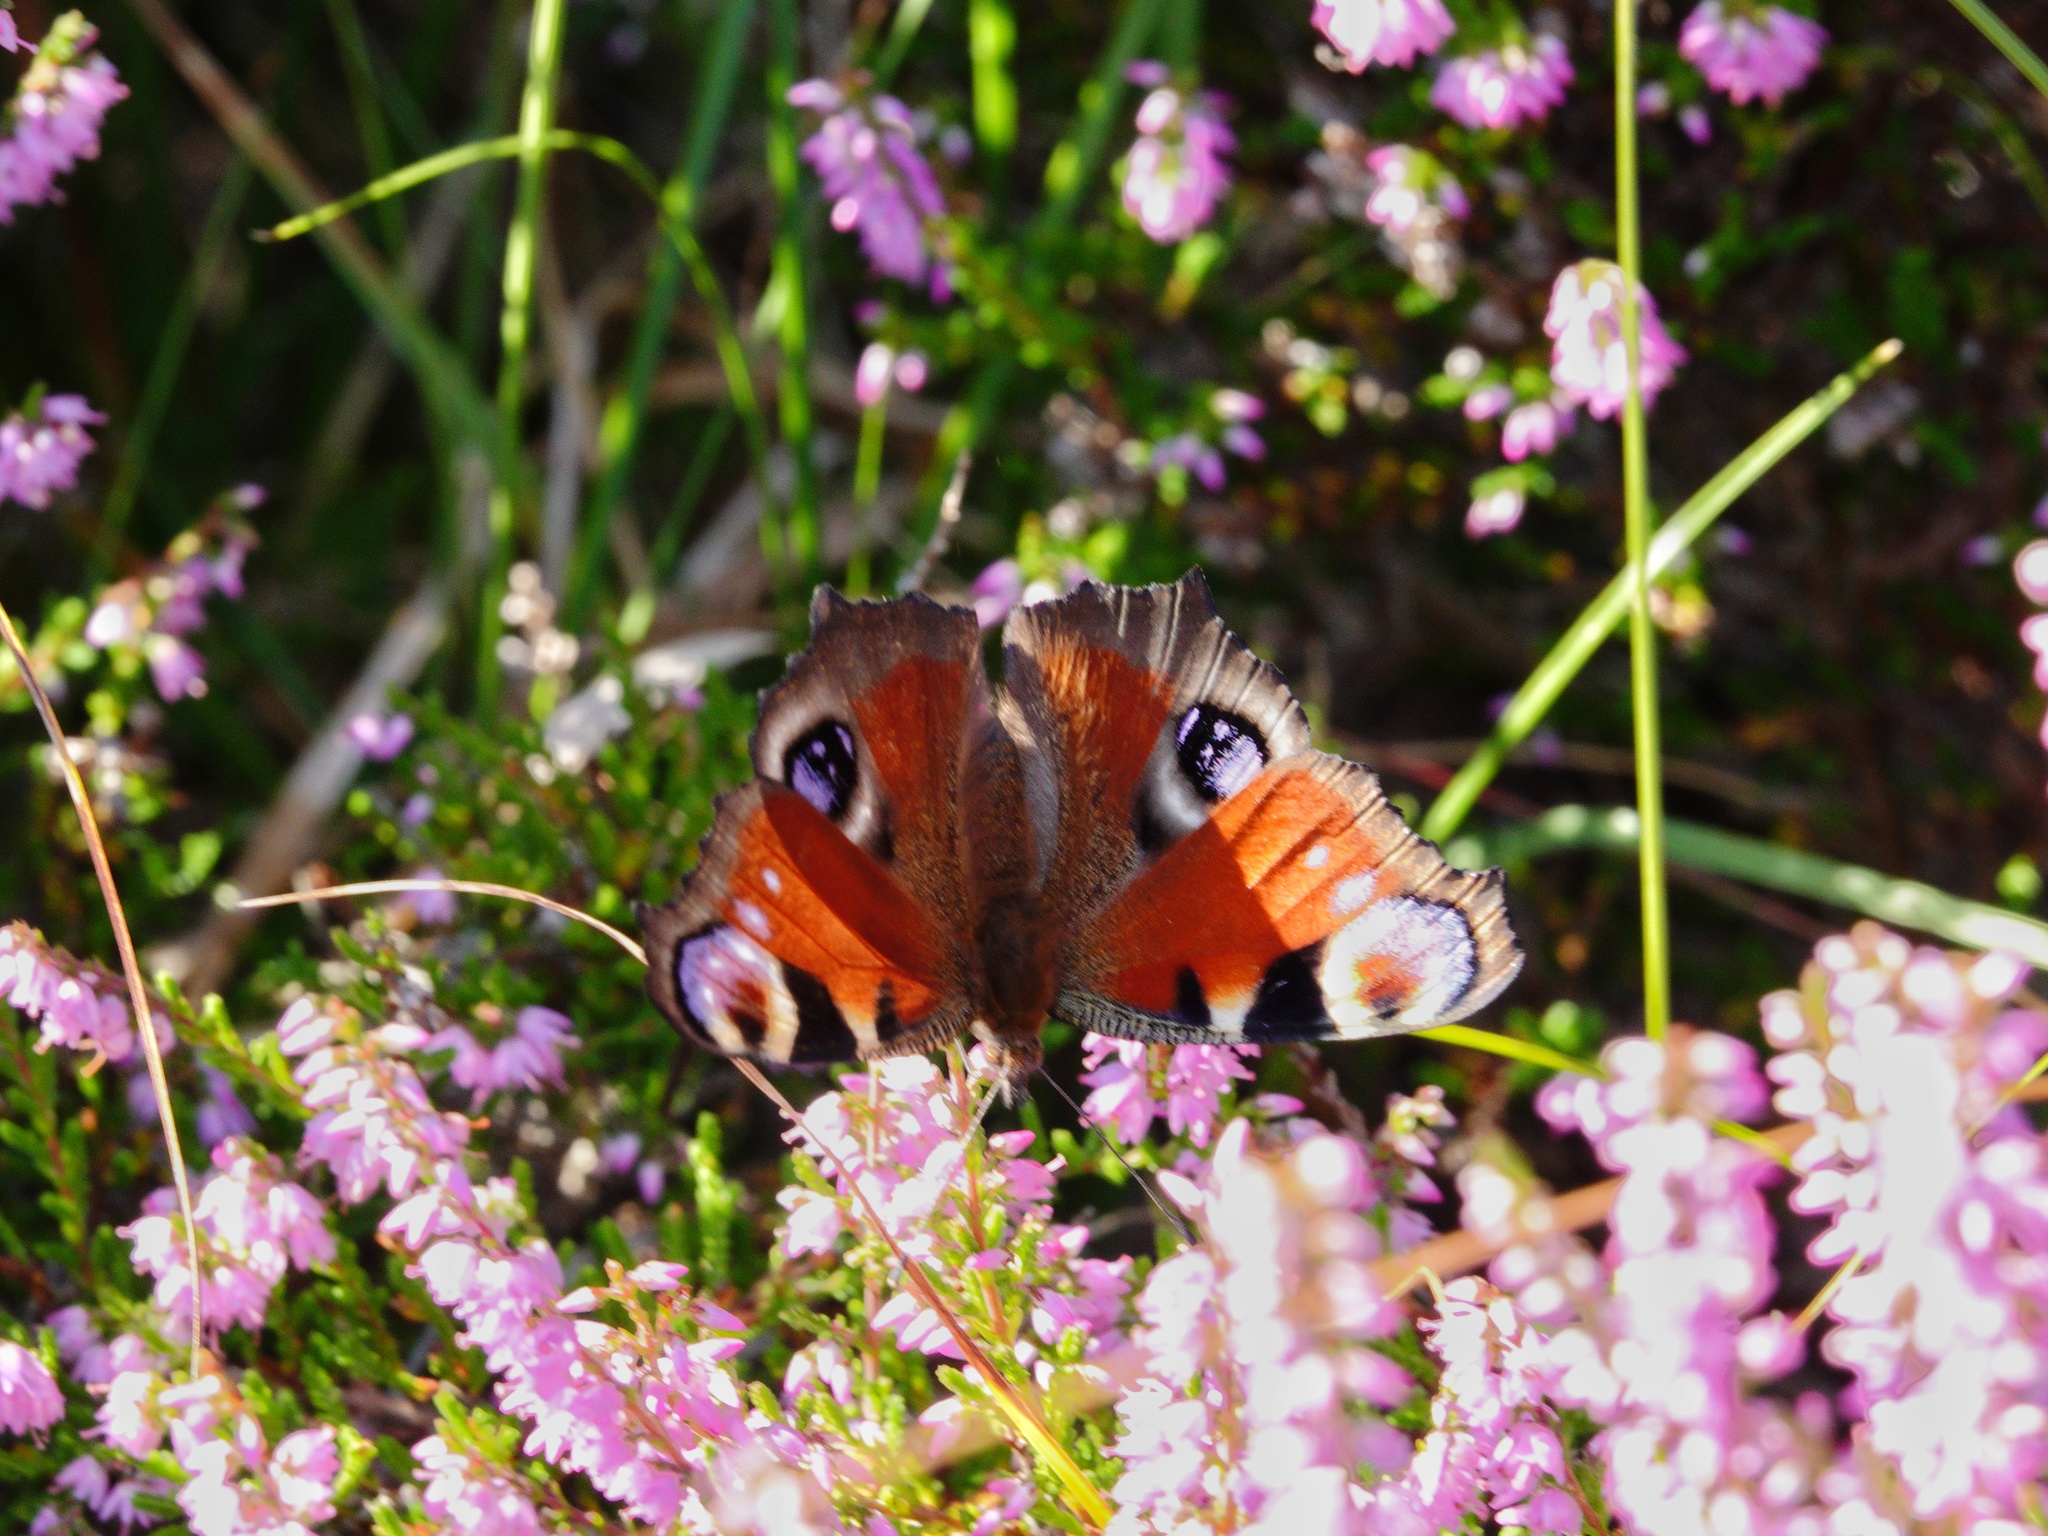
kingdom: Animalia
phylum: Arthropoda
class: Insecta
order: Lepidoptera
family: Nymphalidae
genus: Aglais
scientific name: Aglais io
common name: Peacock
